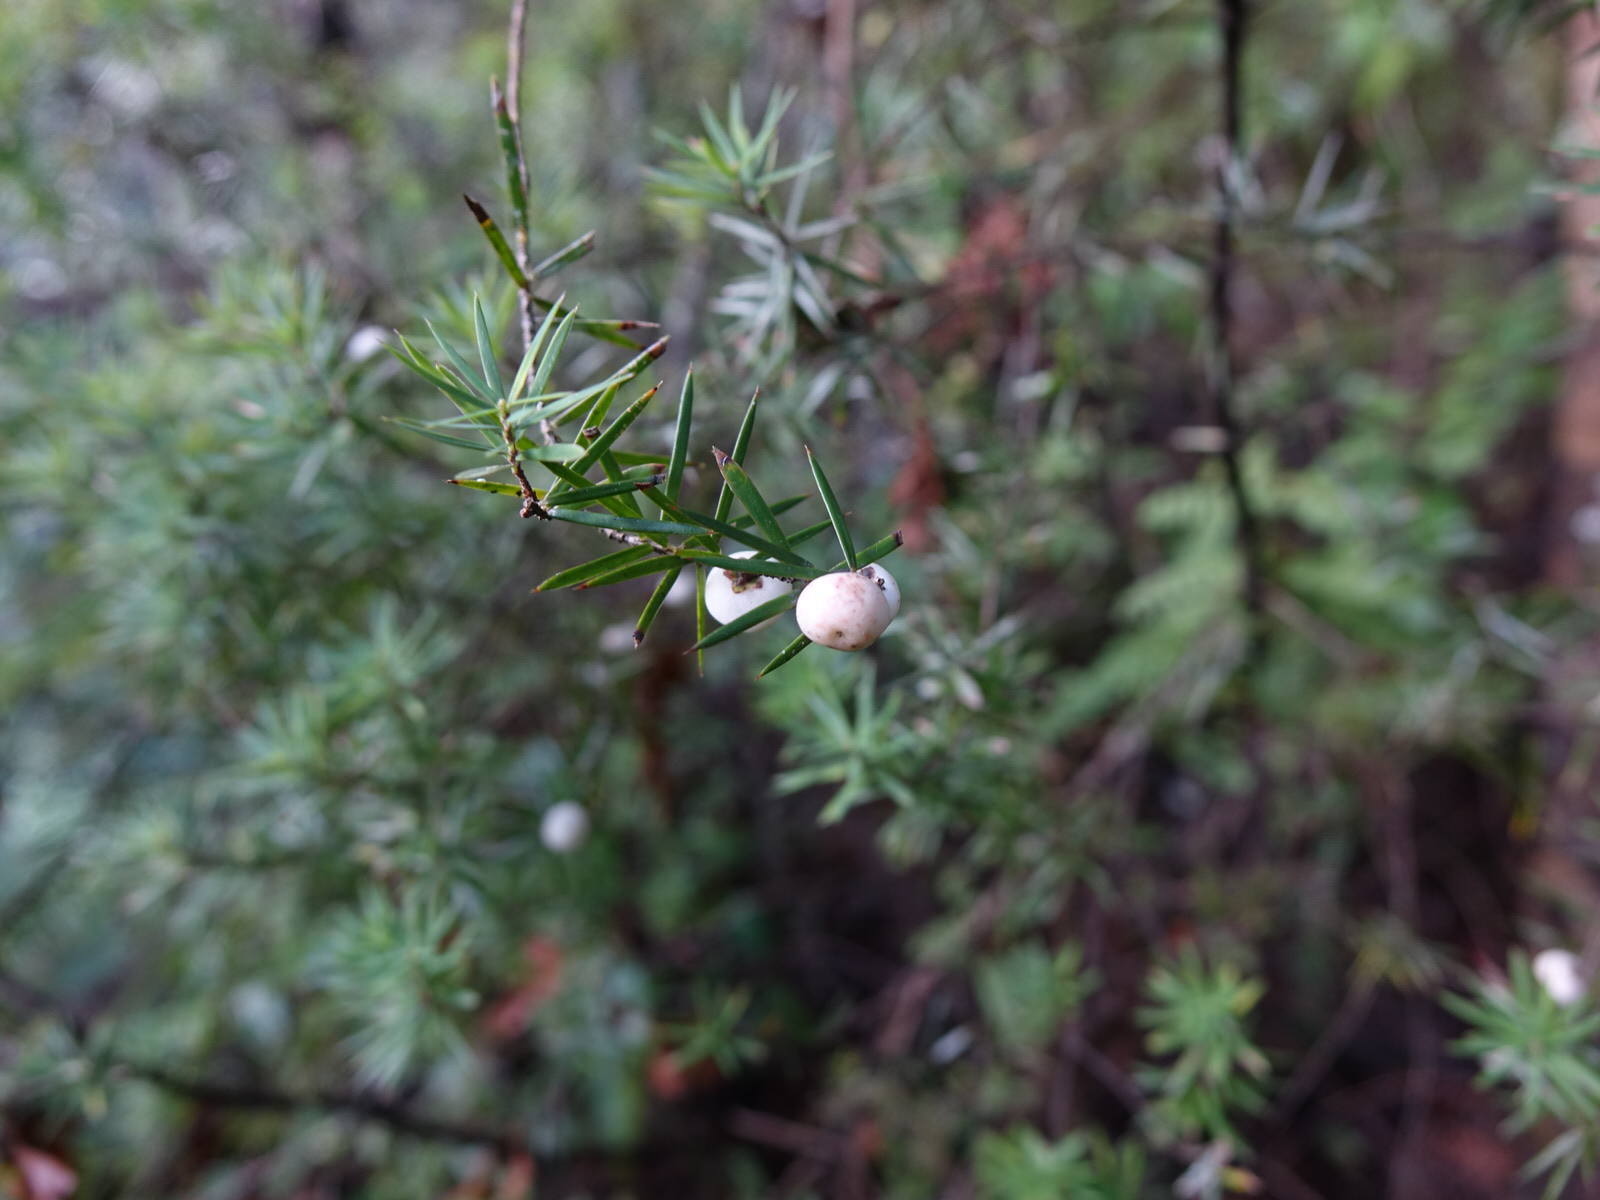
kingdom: Plantae
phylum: Tracheophyta
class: Magnoliopsida
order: Ericales
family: Ericaceae
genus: Leptecophylla
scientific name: Leptecophylla juniperina
